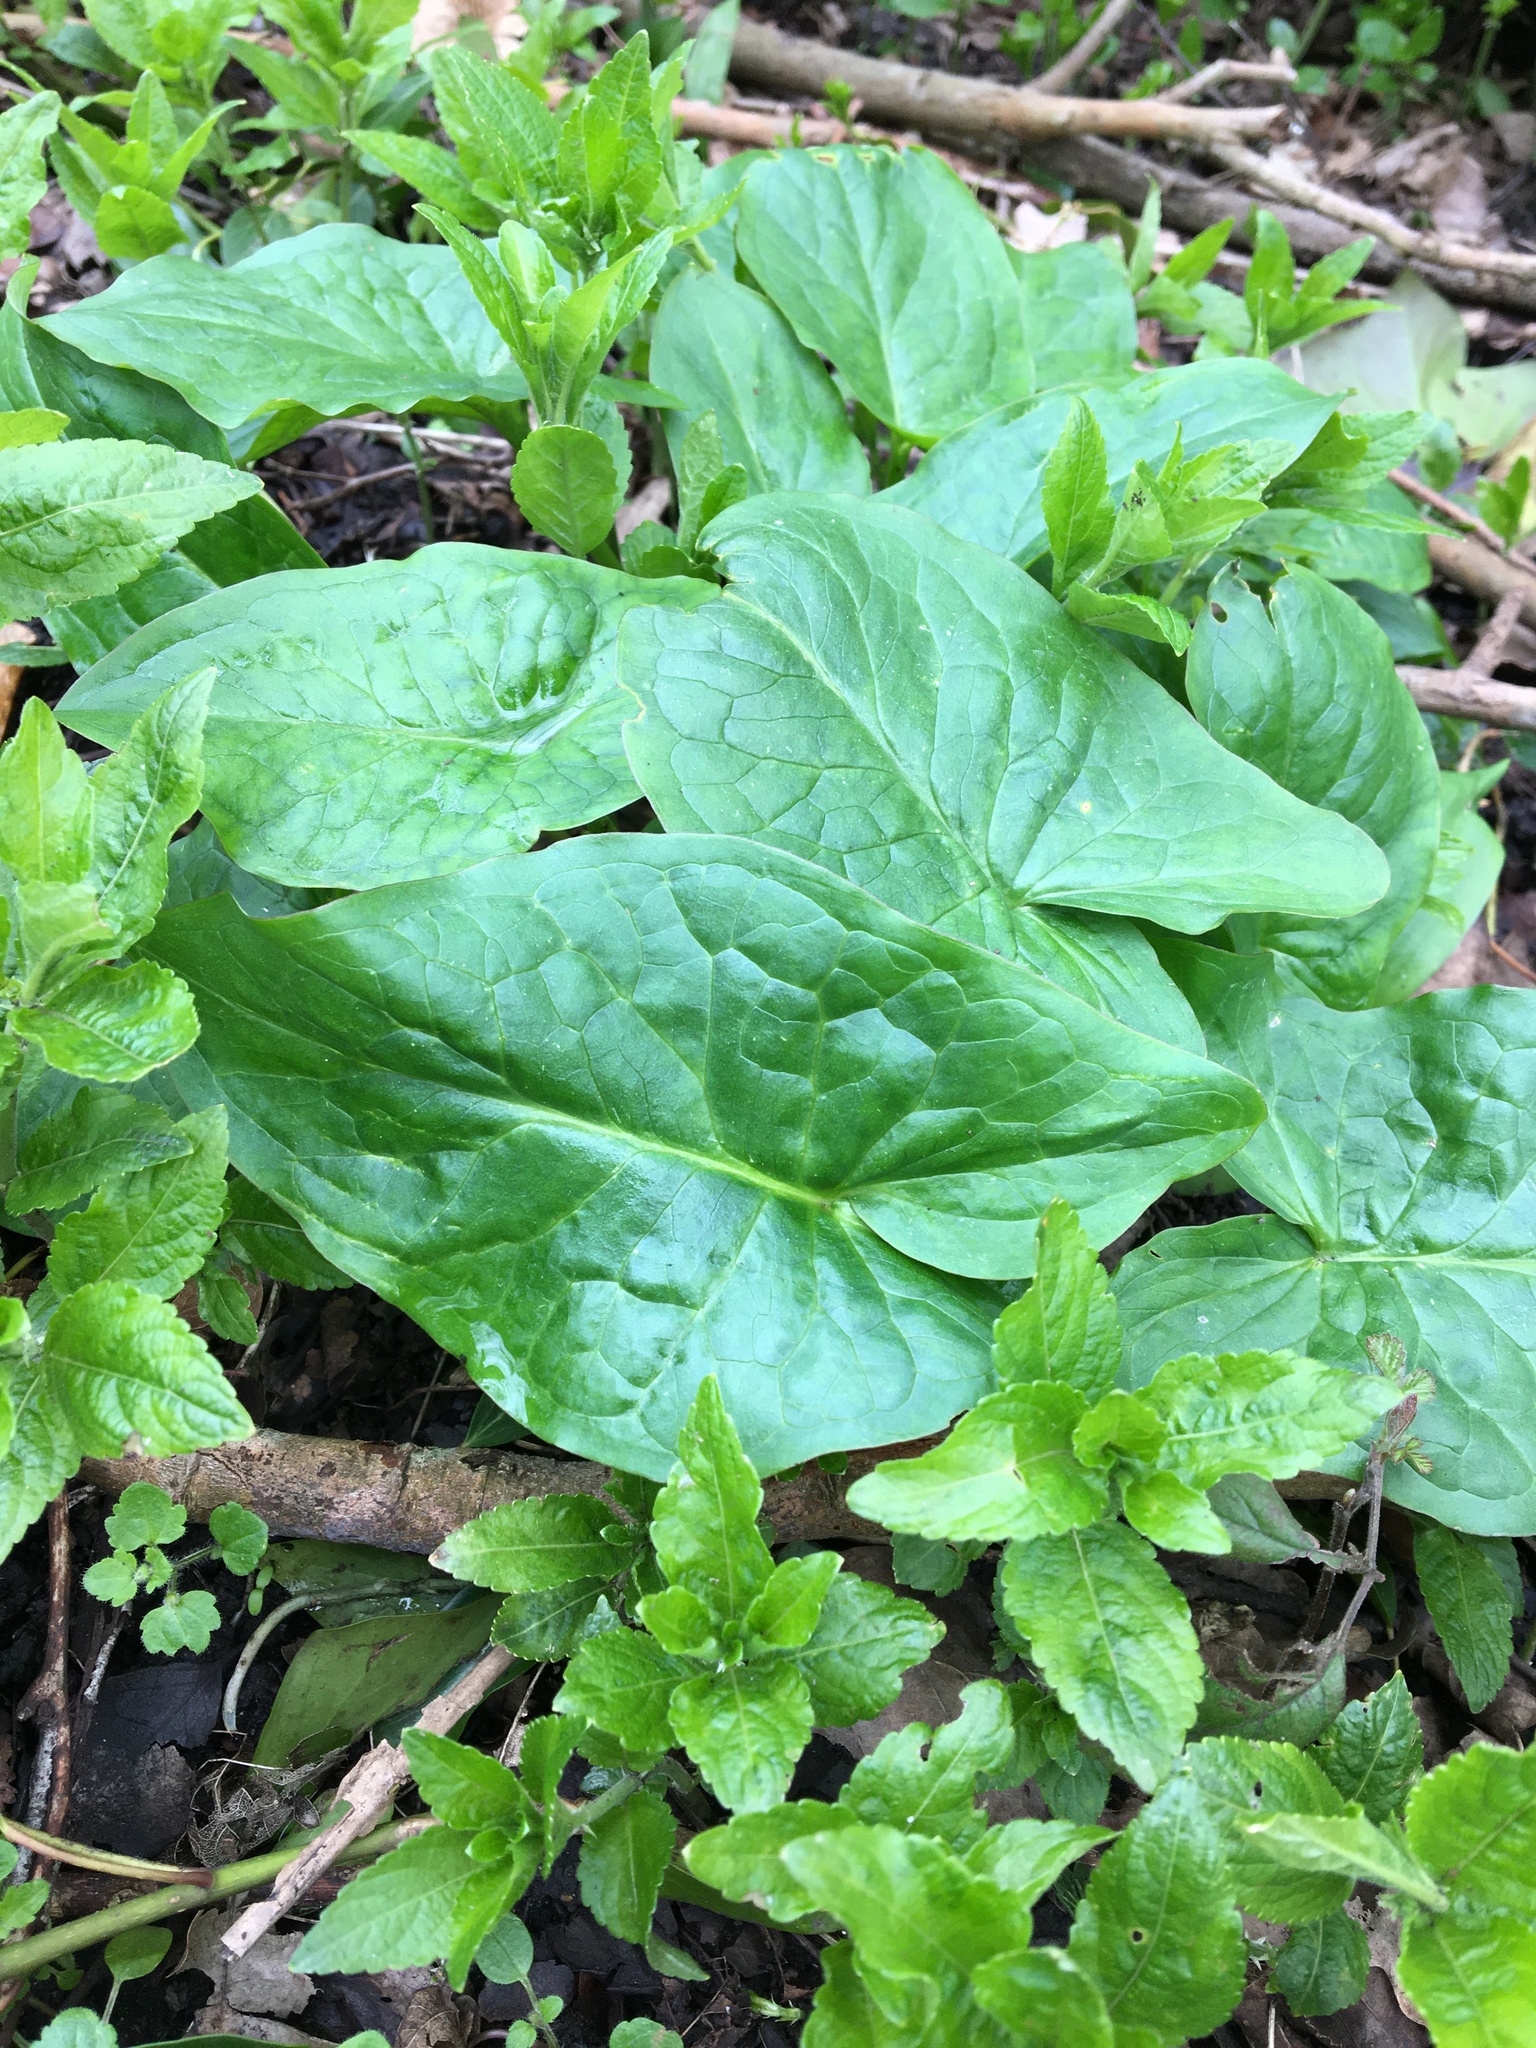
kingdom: Plantae
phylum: Tracheophyta
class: Liliopsida
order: Alismatales
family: Araceae
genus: Arum
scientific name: Arum maculatum
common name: Lords-and-ladies
